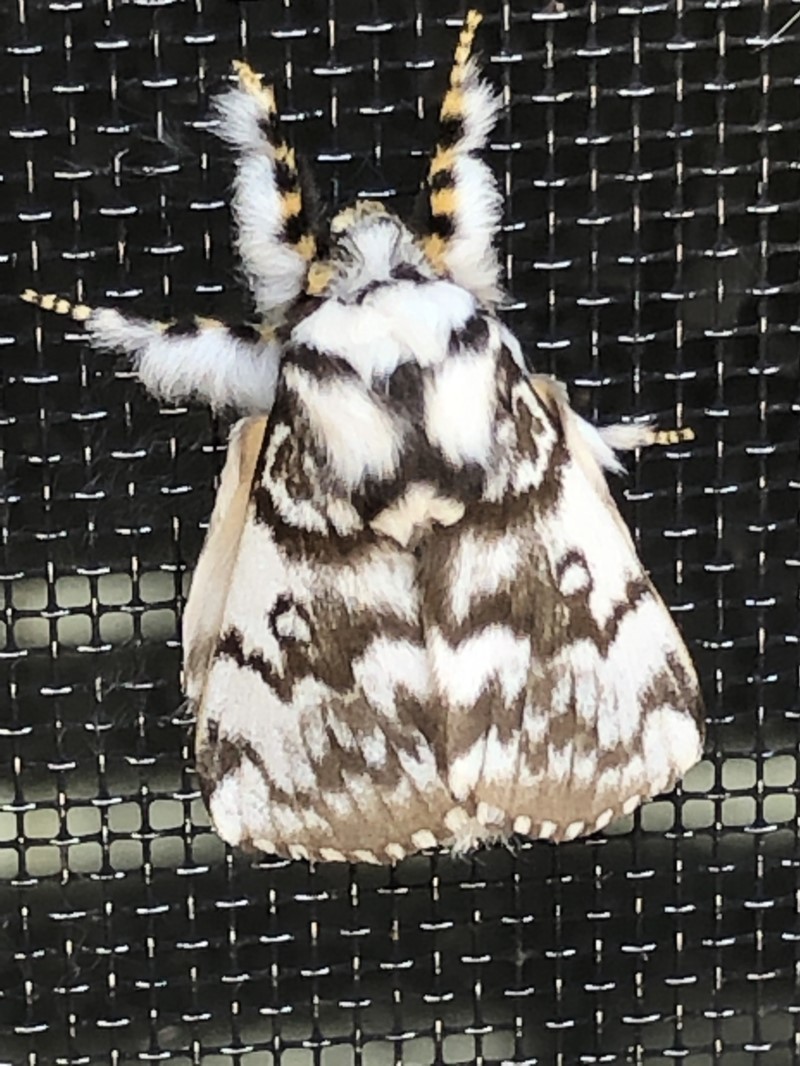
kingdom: Animalia
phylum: Arthropoda
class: Insecta
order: Lepidoptera
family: Lasiocampidae
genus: Porela
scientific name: Porela vitulina
